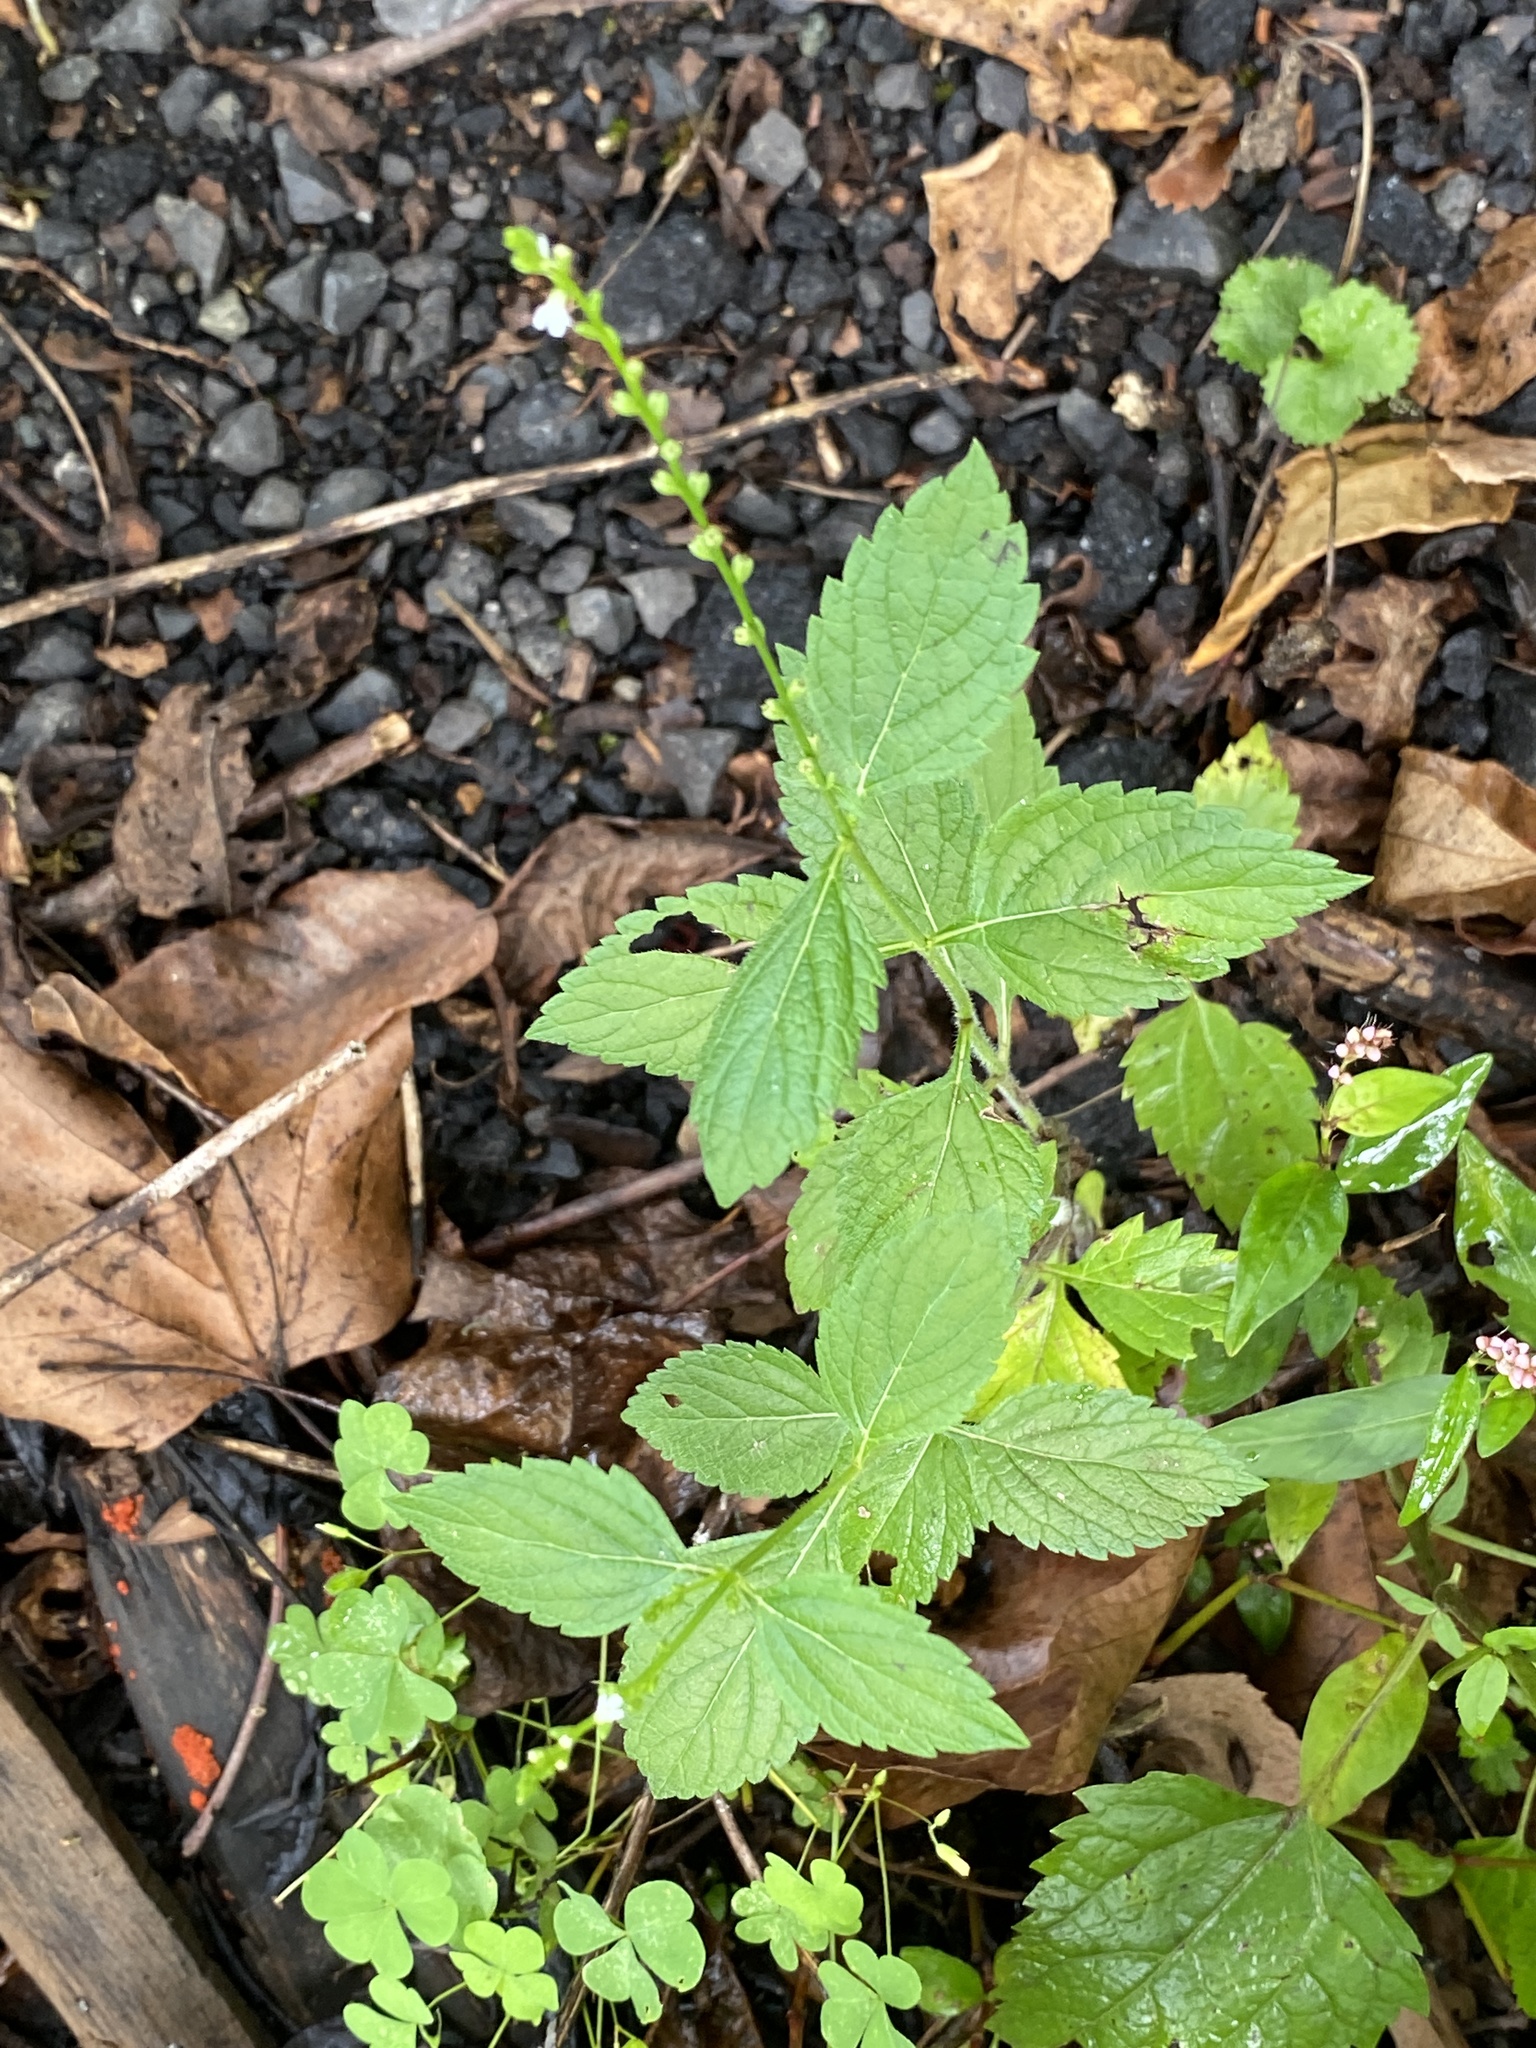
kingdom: Plantae
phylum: Tracheophyta
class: Magnoliopsida
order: Lamiales
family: Verbenaceae
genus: Verbena
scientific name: Verbena urticifolia
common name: Nettle-leaved vervain
